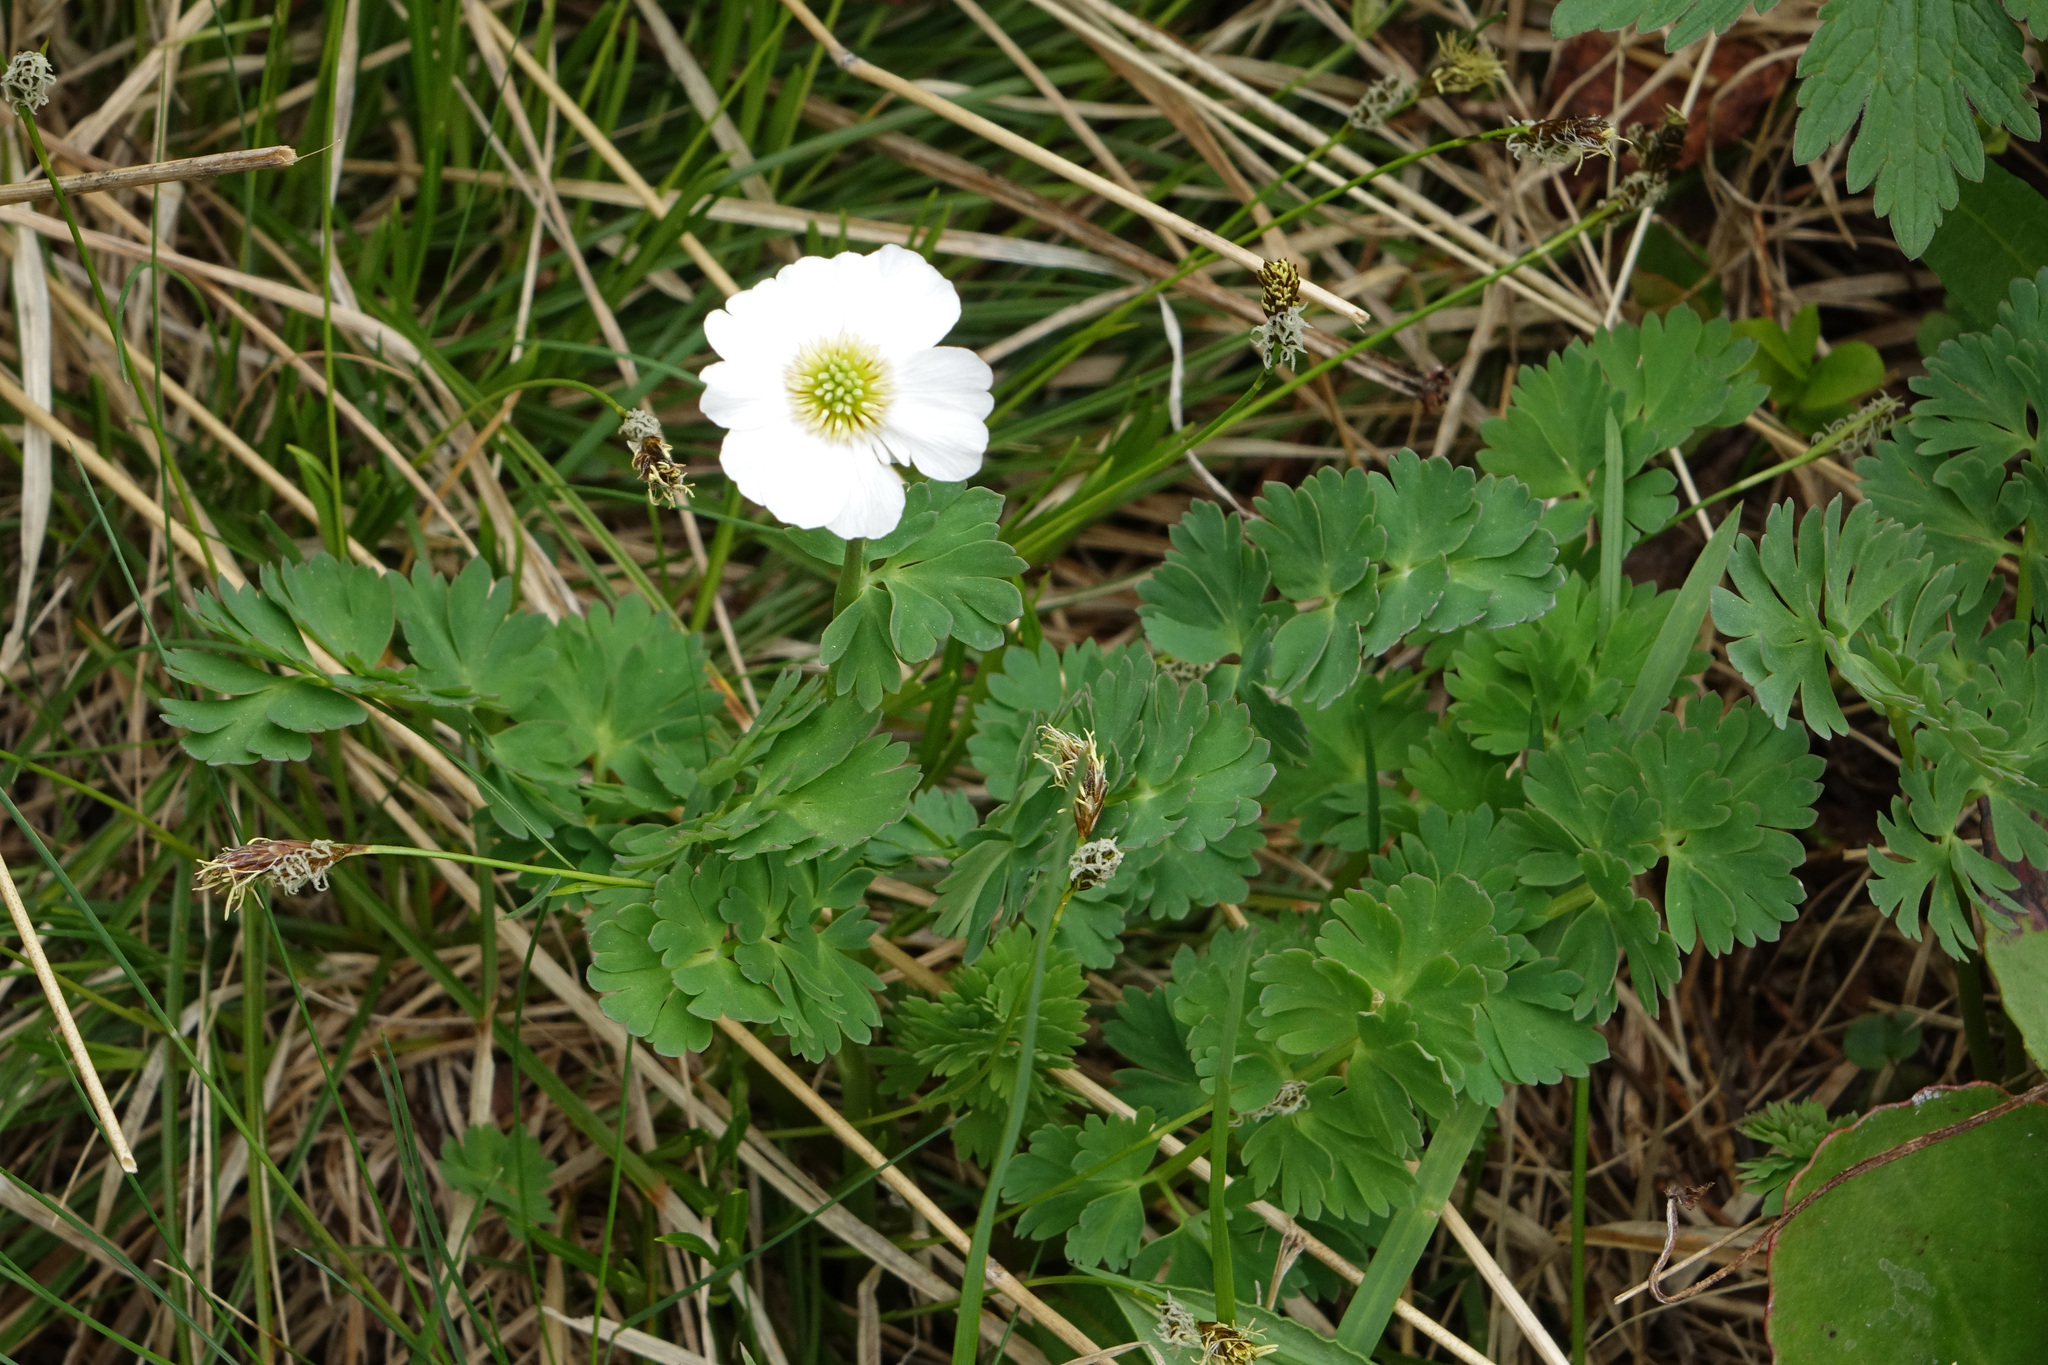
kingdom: Plantae
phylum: Tracheophyta
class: Magnoliopsida
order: Ranunculales
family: Ranunculaceae
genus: Callianthemum
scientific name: Callianthemum sajanense
